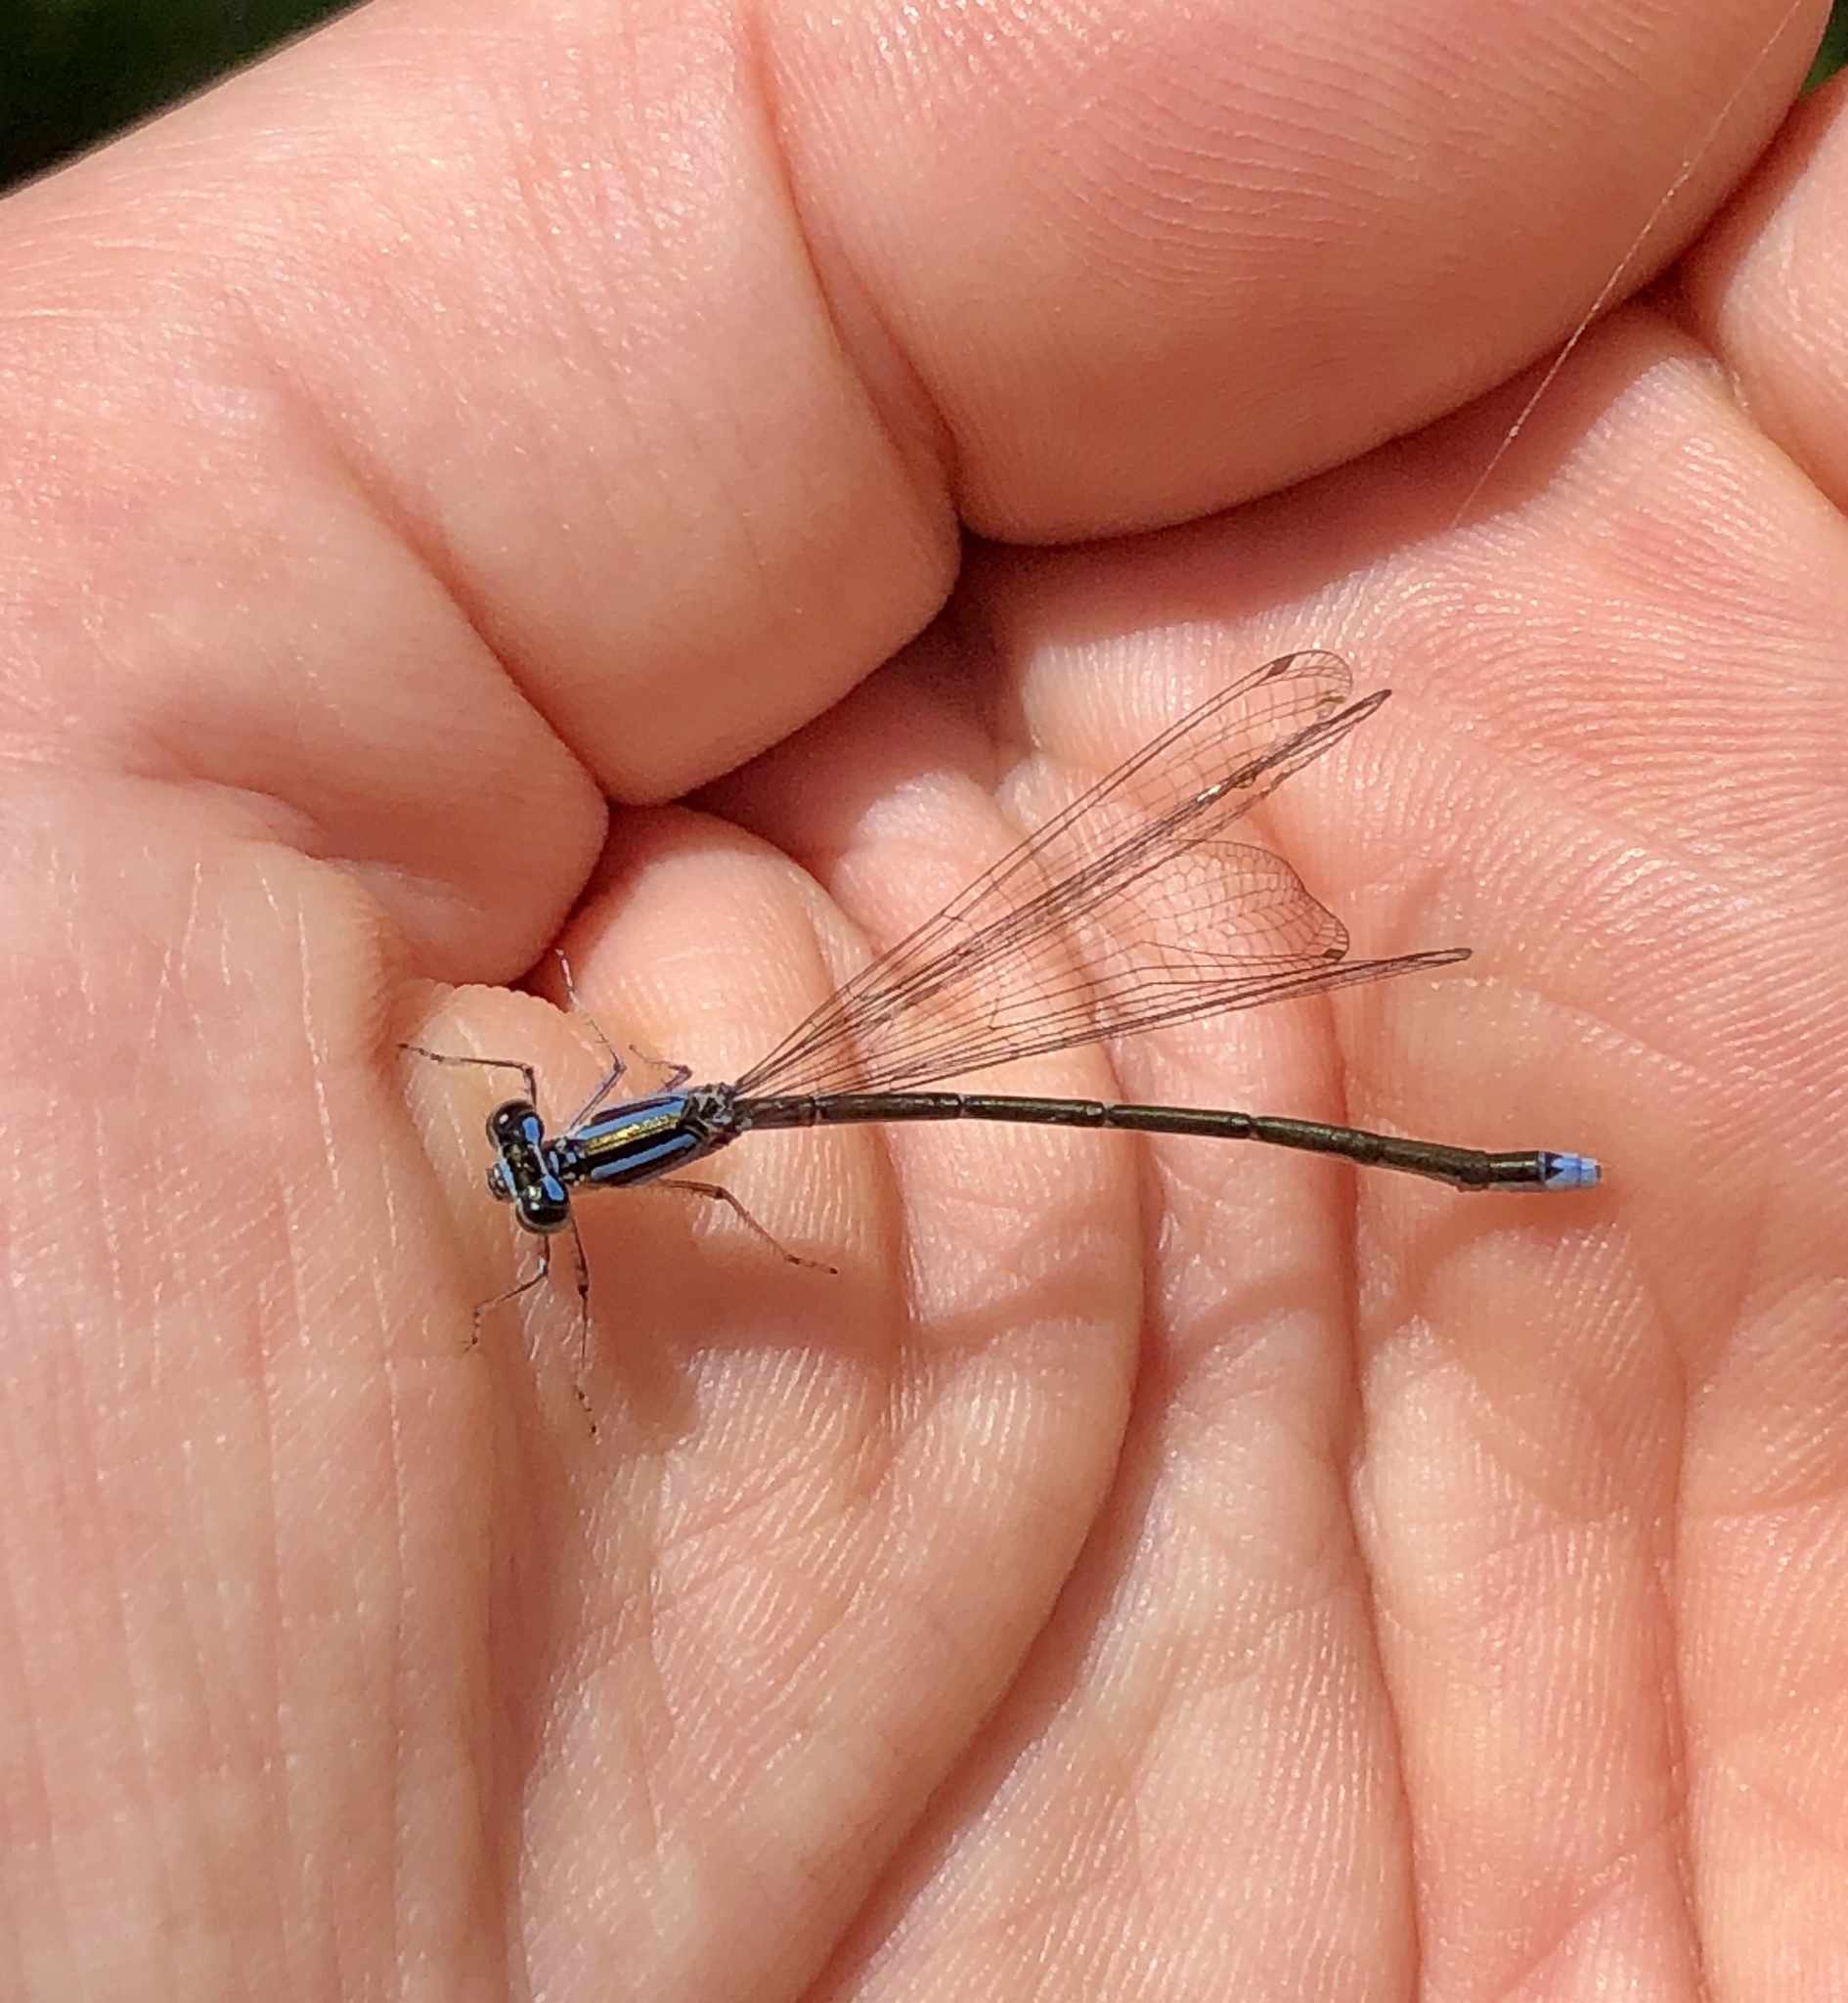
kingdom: Animalia
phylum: Arthropoda
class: Insecta
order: Odonata
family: Coenagrionidae
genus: Enallagma
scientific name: Enallagma exsulans
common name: Stream bluet
